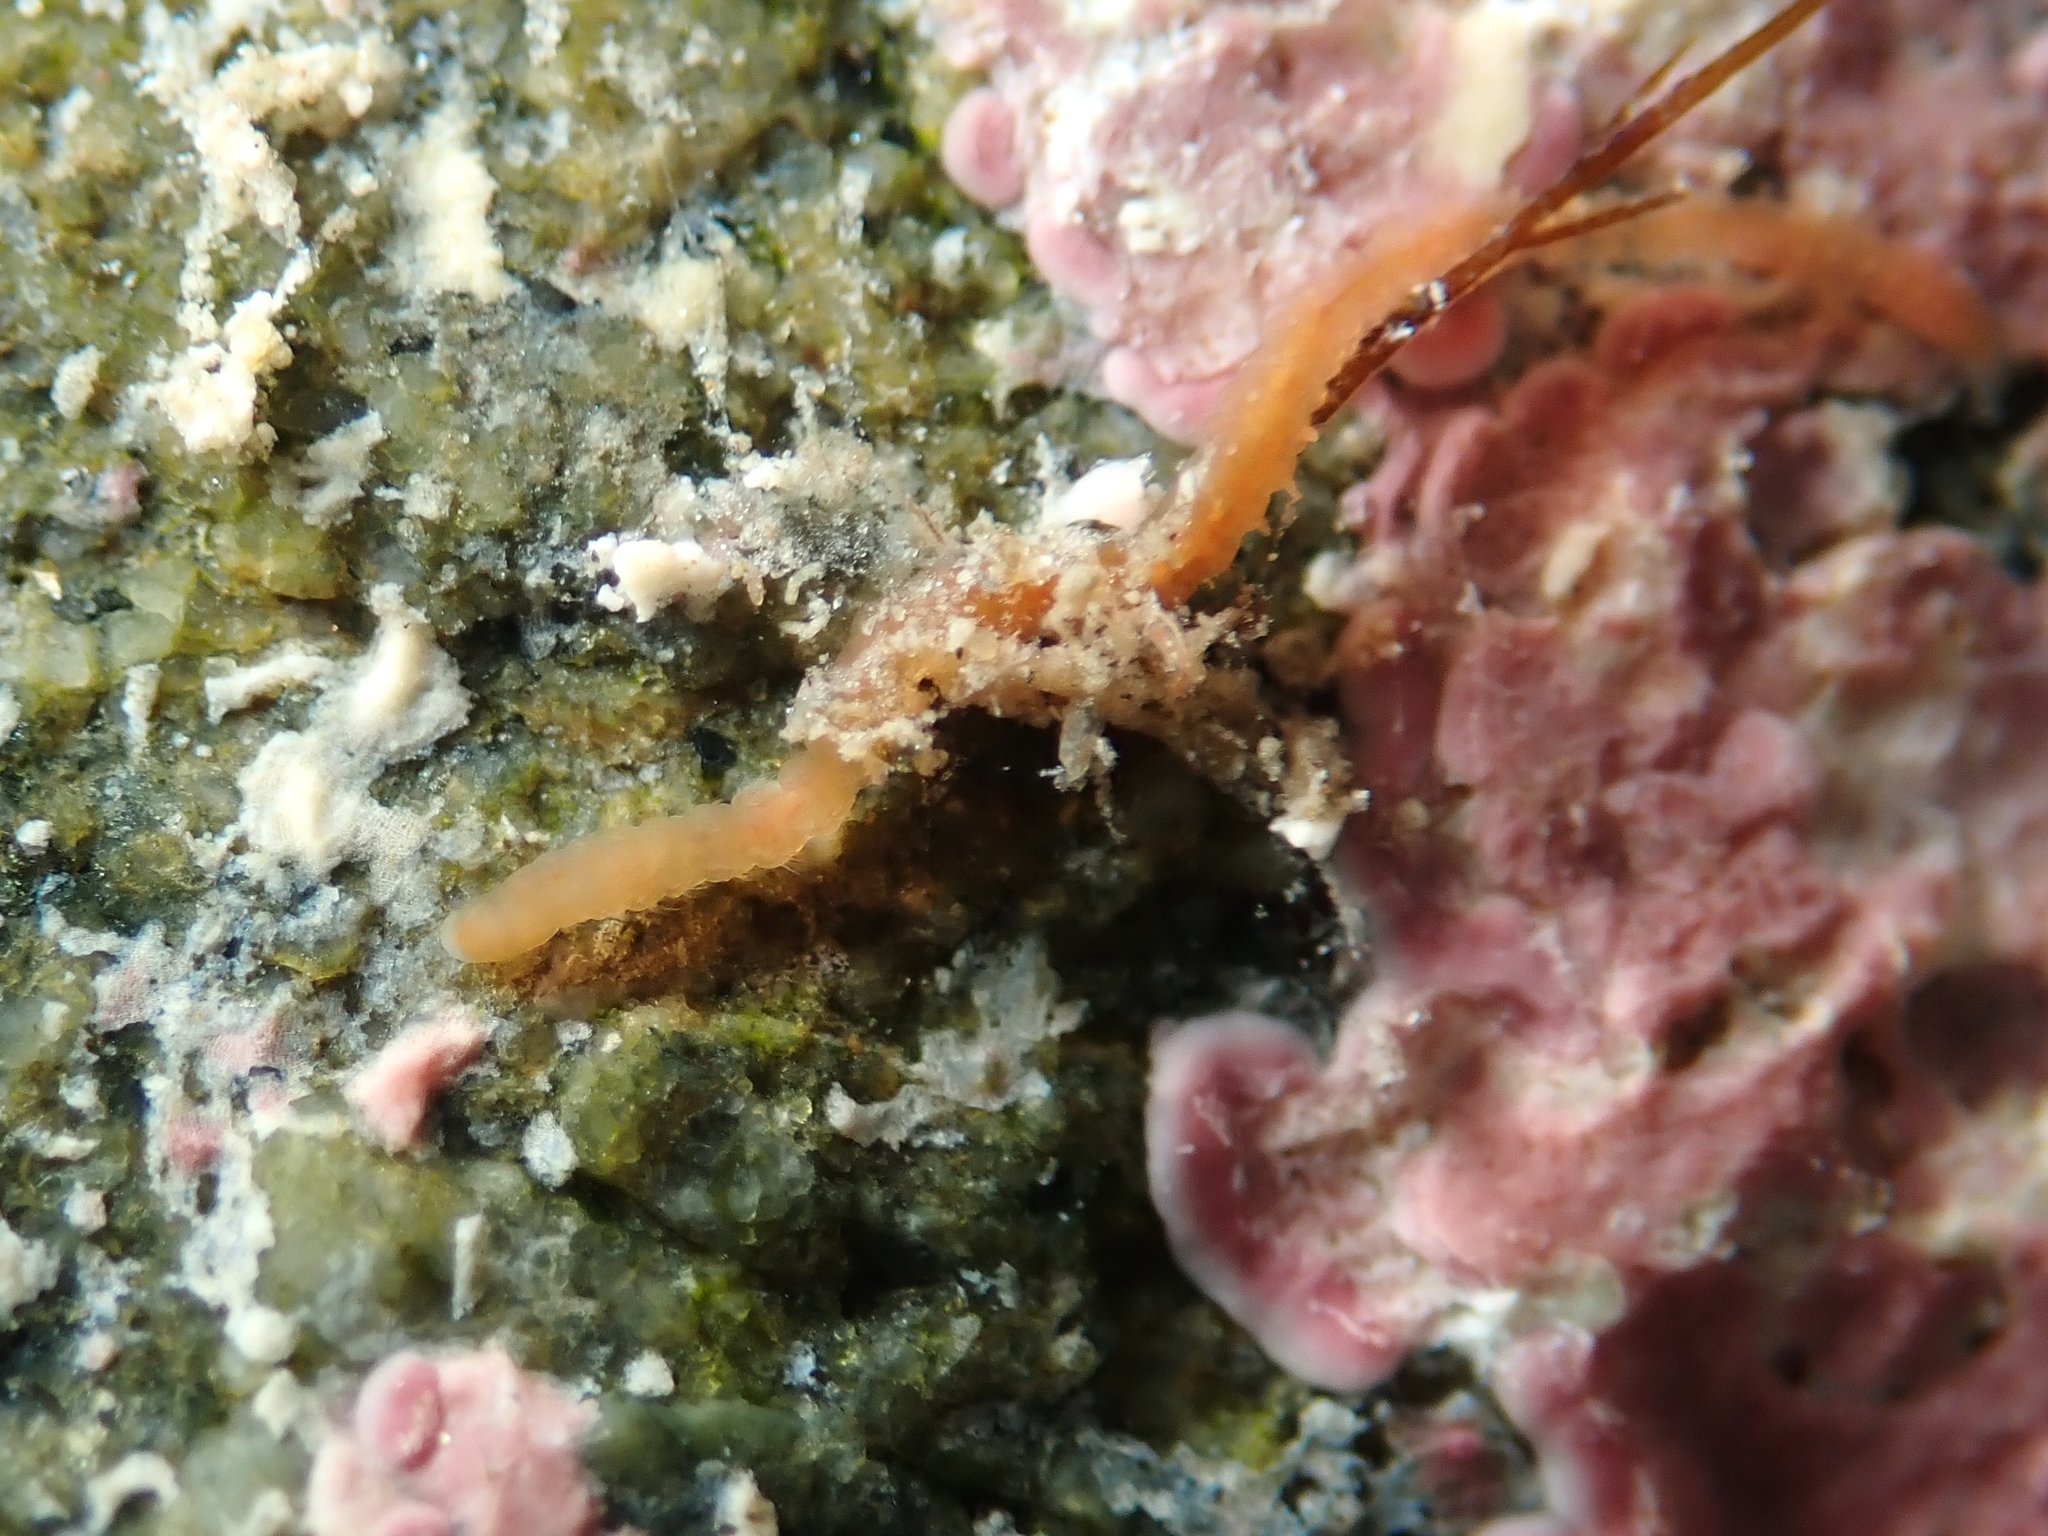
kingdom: Animalia
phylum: Annelida
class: Polychaeta
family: Orbiniidae
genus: Proscoloplos
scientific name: Proscoloplos cygnochaetus
